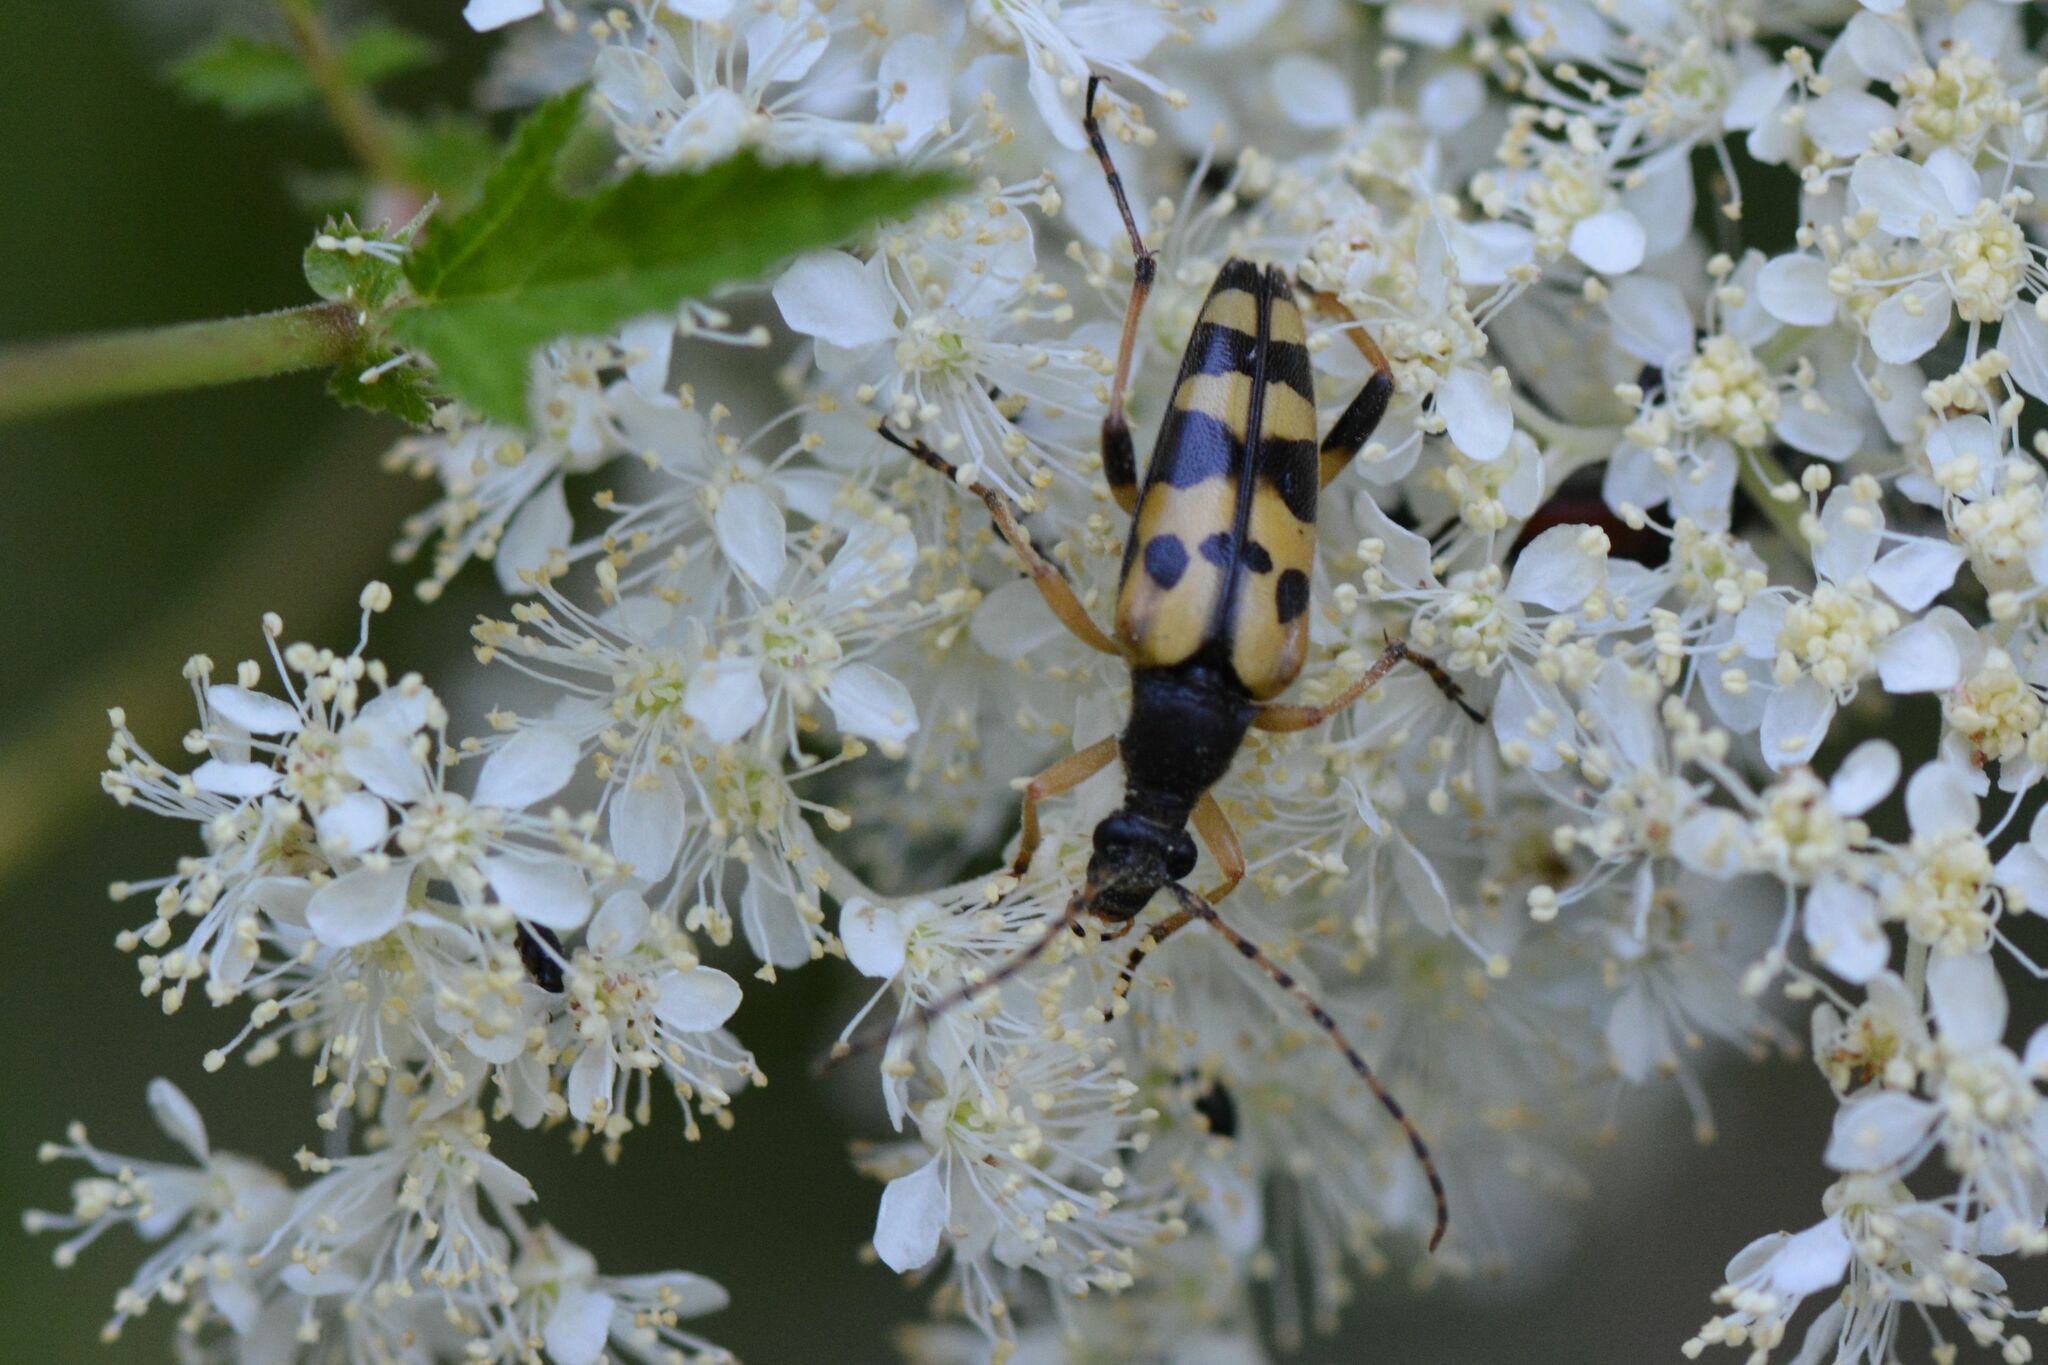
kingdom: Animalia
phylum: Arthropoda
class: Insecta
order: Coleoptera
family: Cerambycidae
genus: Rutpela
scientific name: Rutpela maculata
